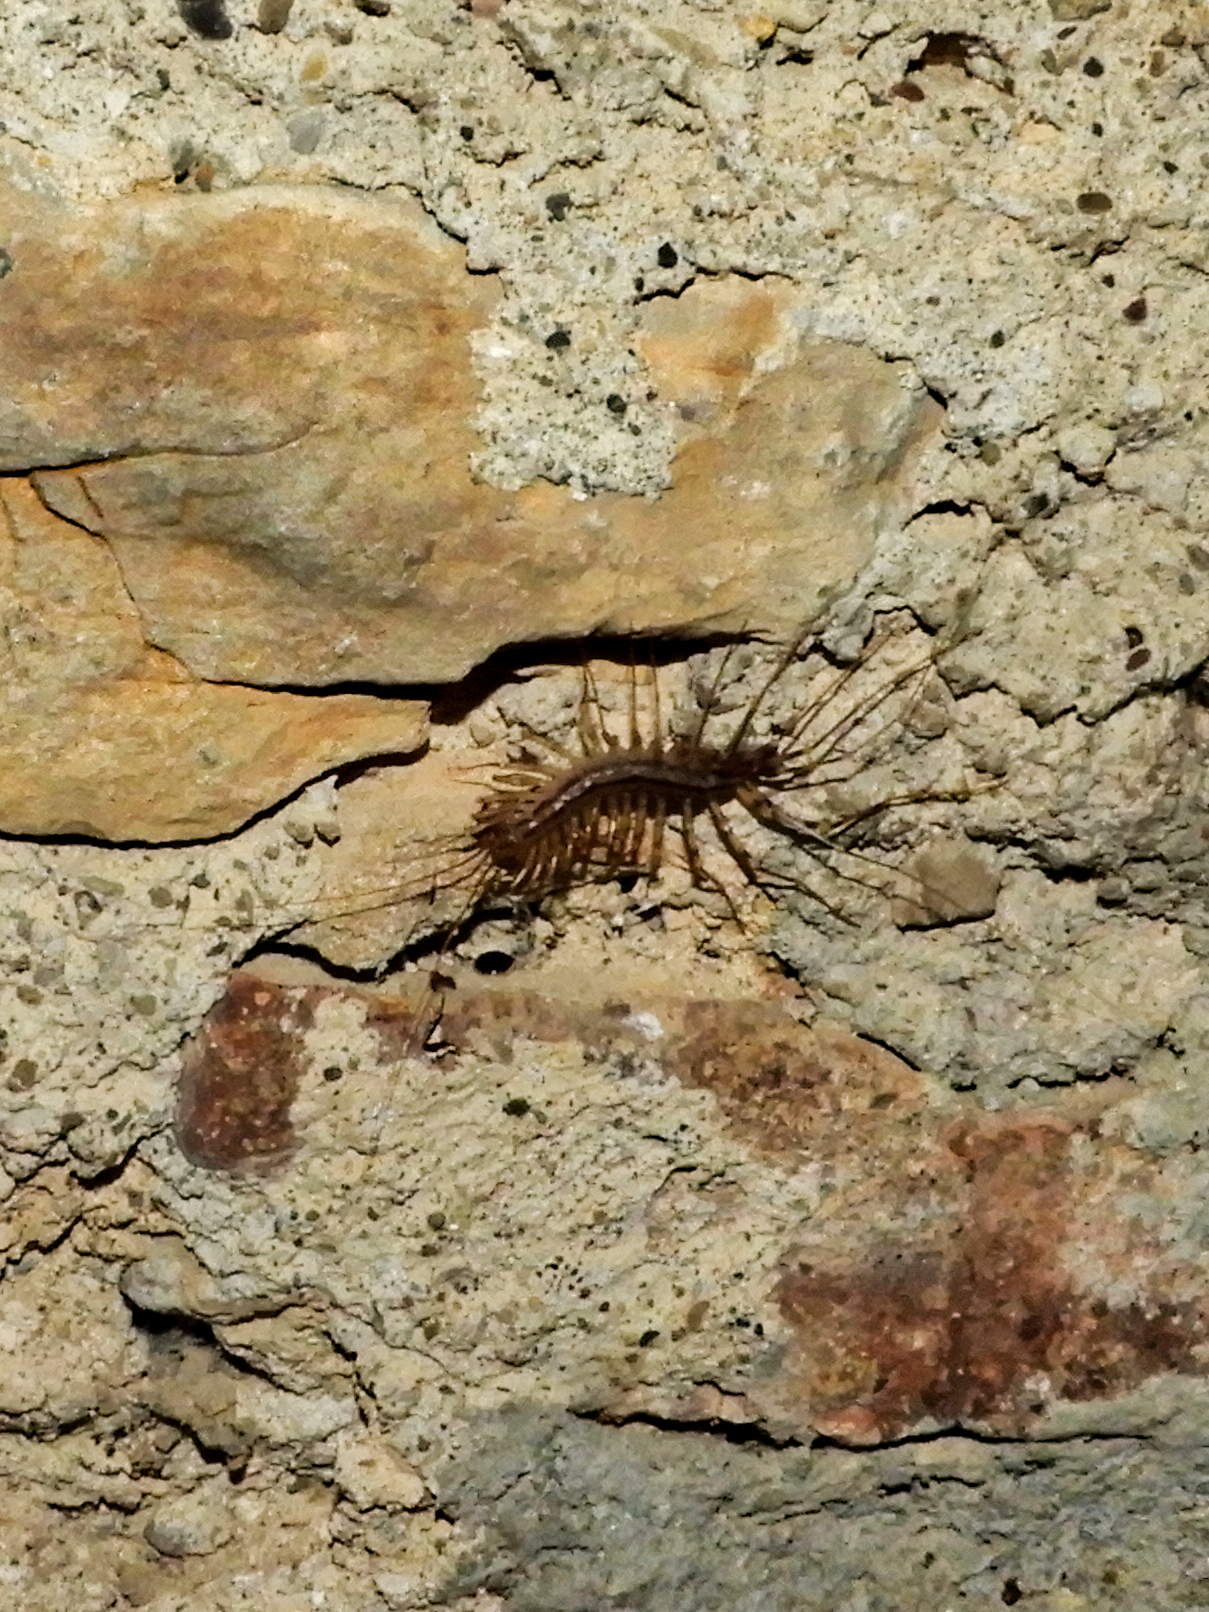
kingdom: Animalia
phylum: Arthropoda
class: Chilopoda
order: Scutigeromorpha
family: Scutigeridae
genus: Scutigera
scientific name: Scutigera coleoptrata
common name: House centipede
